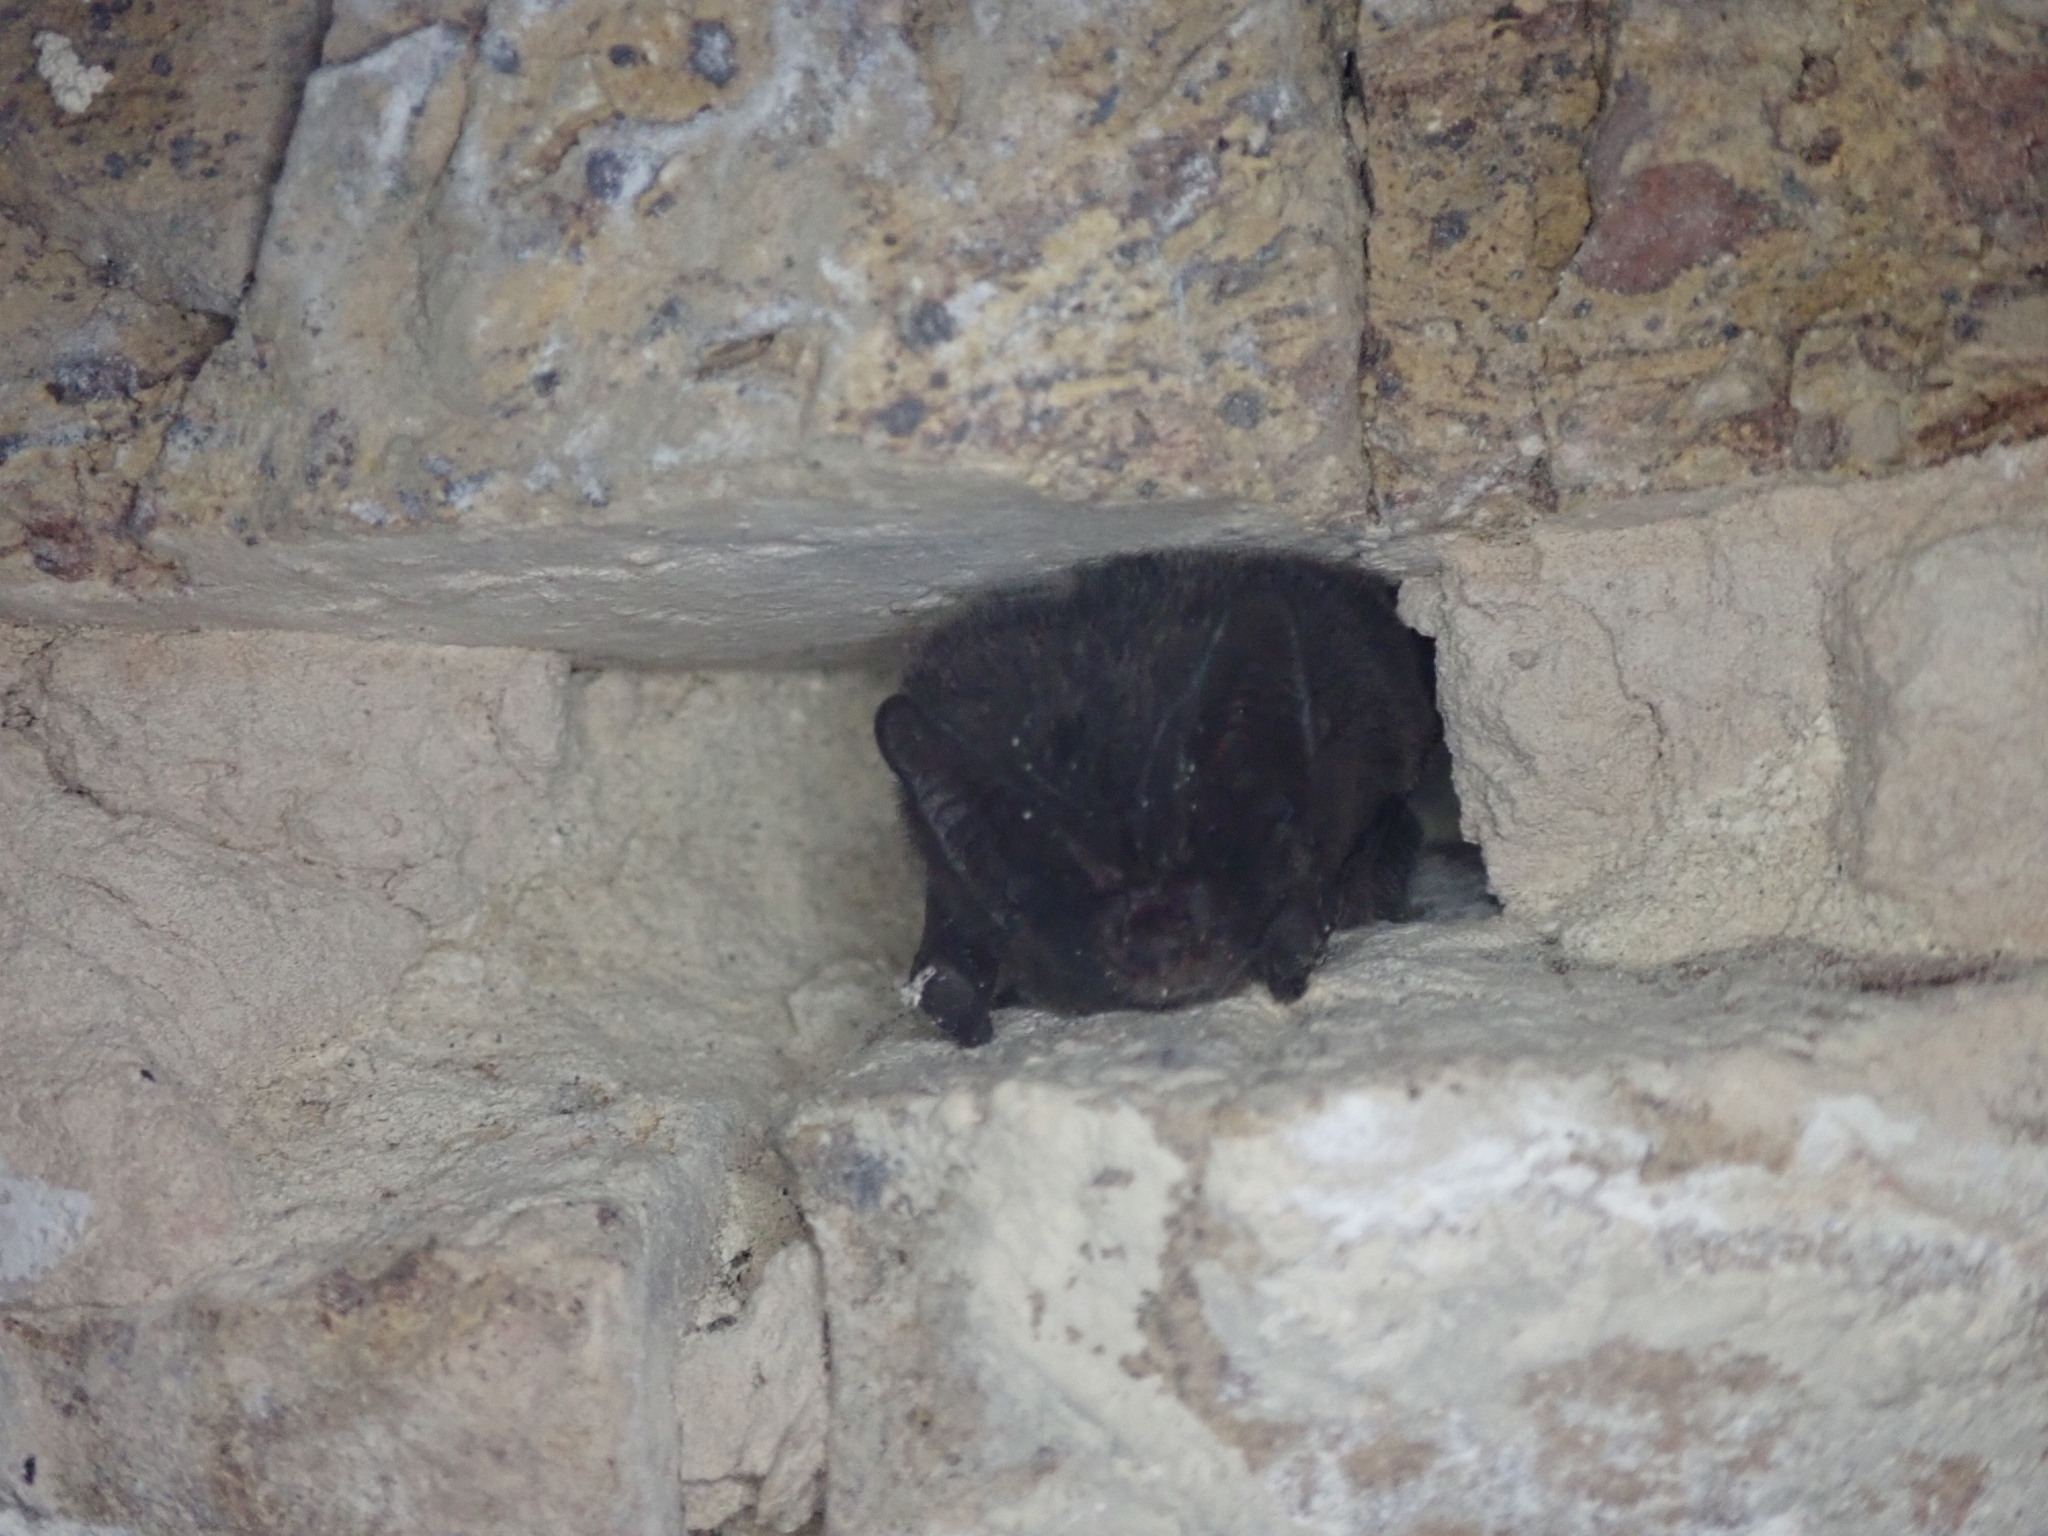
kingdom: Animalia
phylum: Chordata
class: Mammalia
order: Chiroptera
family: Vespertilionidae
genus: Barbastella
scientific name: Barbastella barbastellus
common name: Western barbastelle
